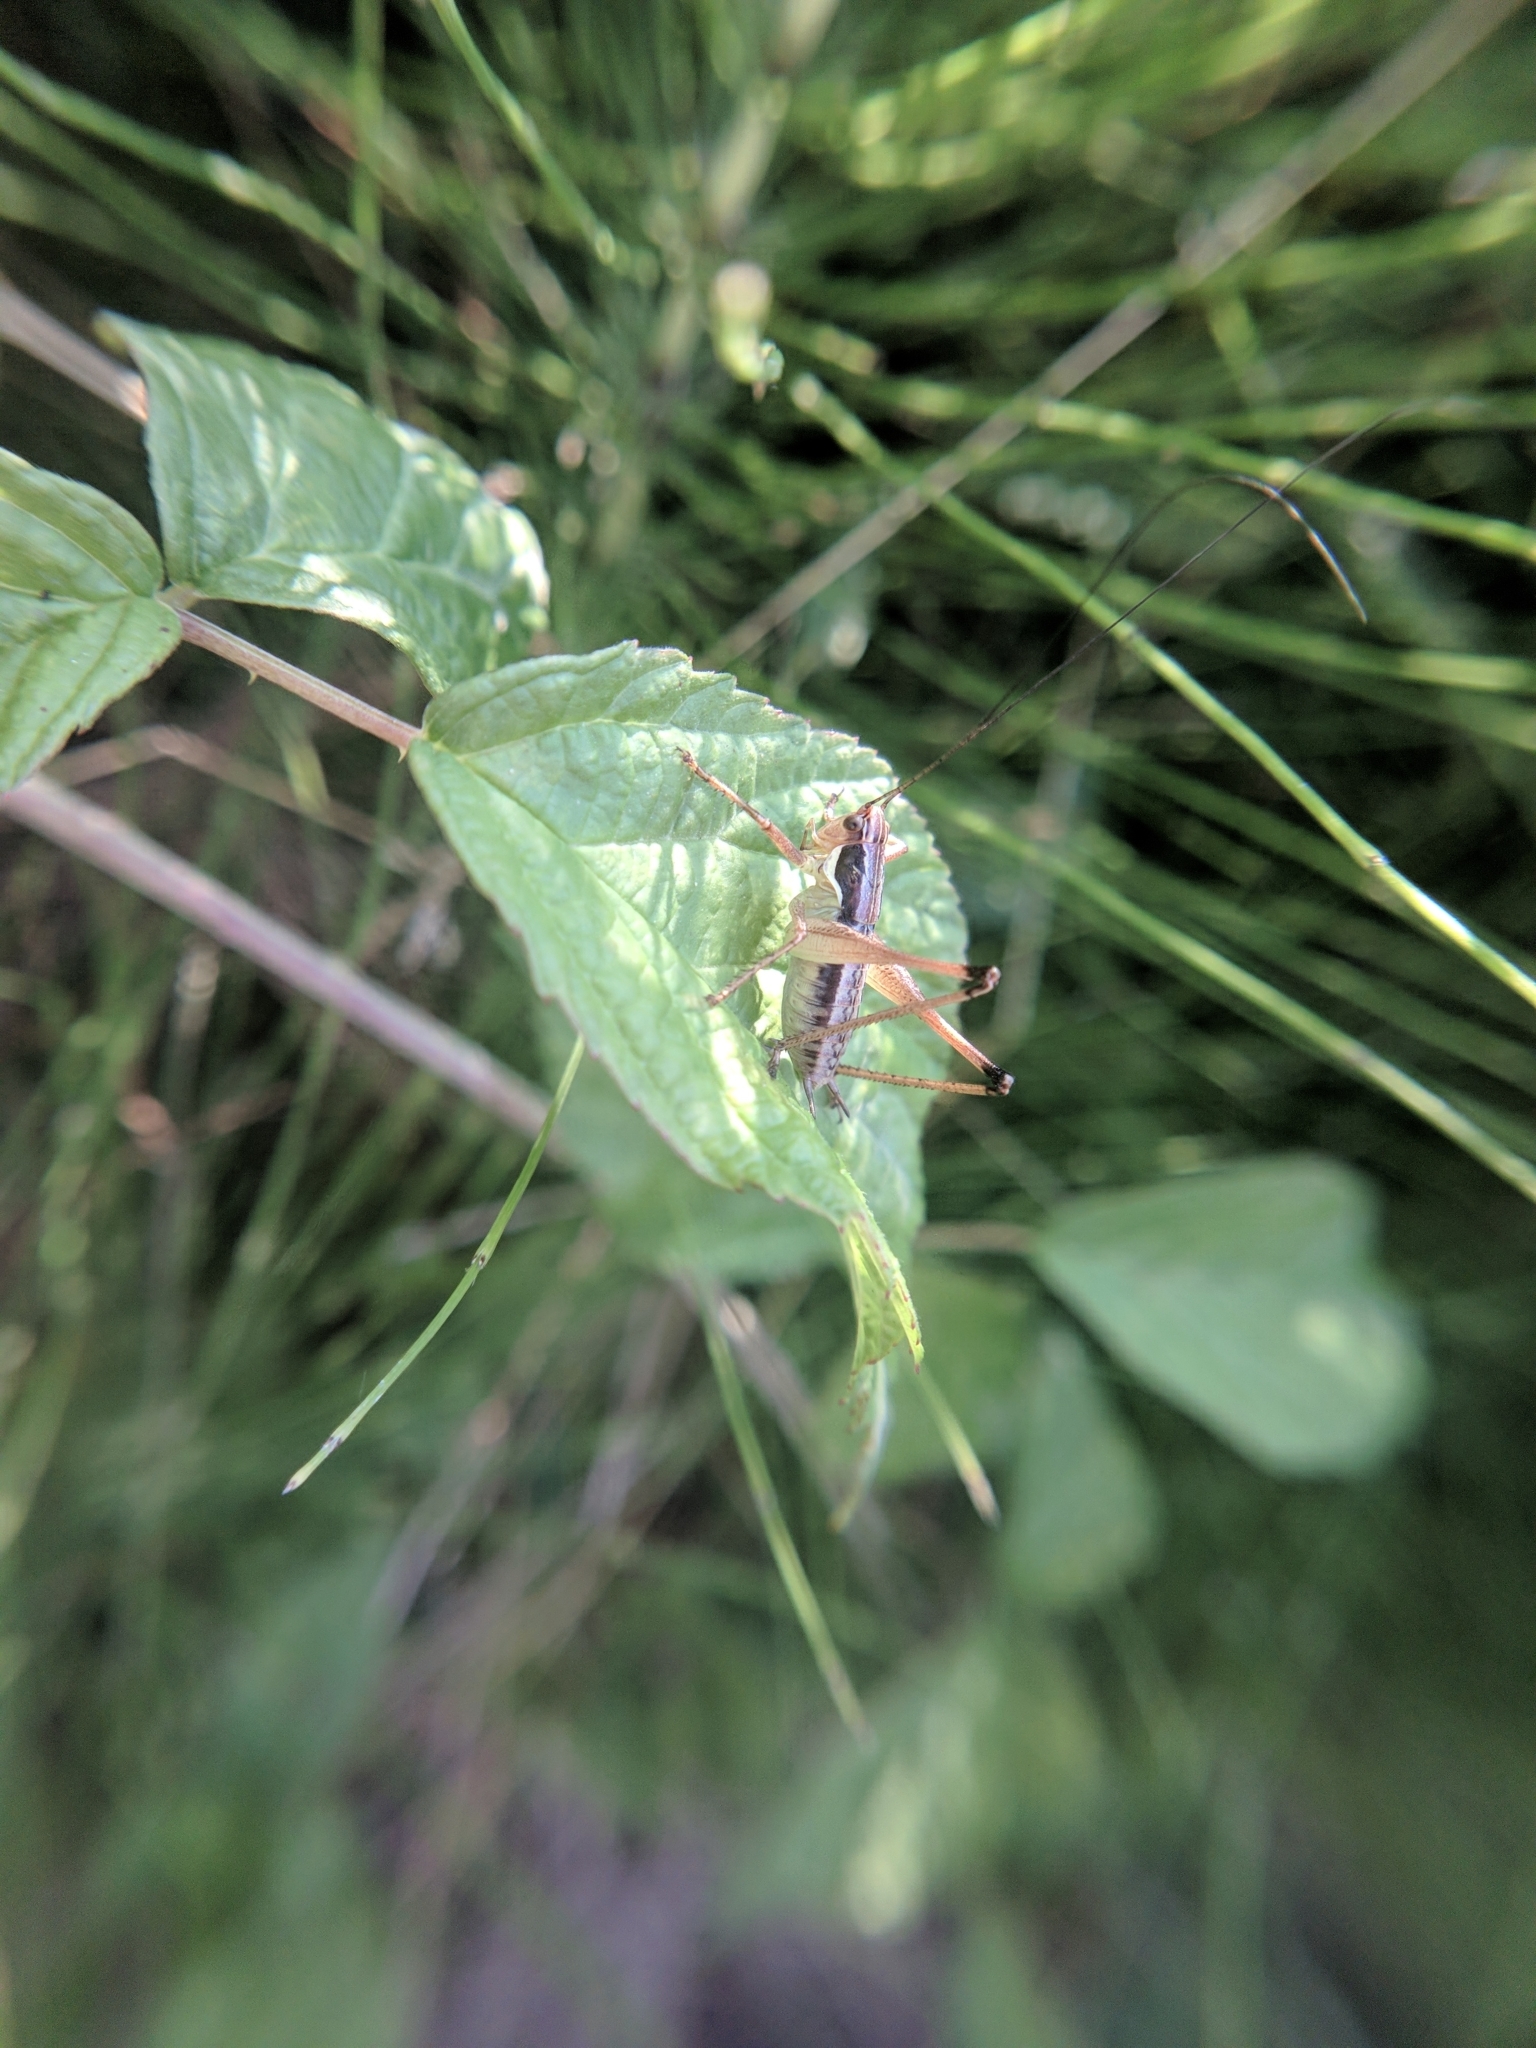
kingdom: Animalia
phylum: Arthropoda
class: Insecta
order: Orthoptera
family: Tettigoniidae
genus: Pachytrachis
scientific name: Pachytrachis gracilis
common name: Graceful bush-cricket
